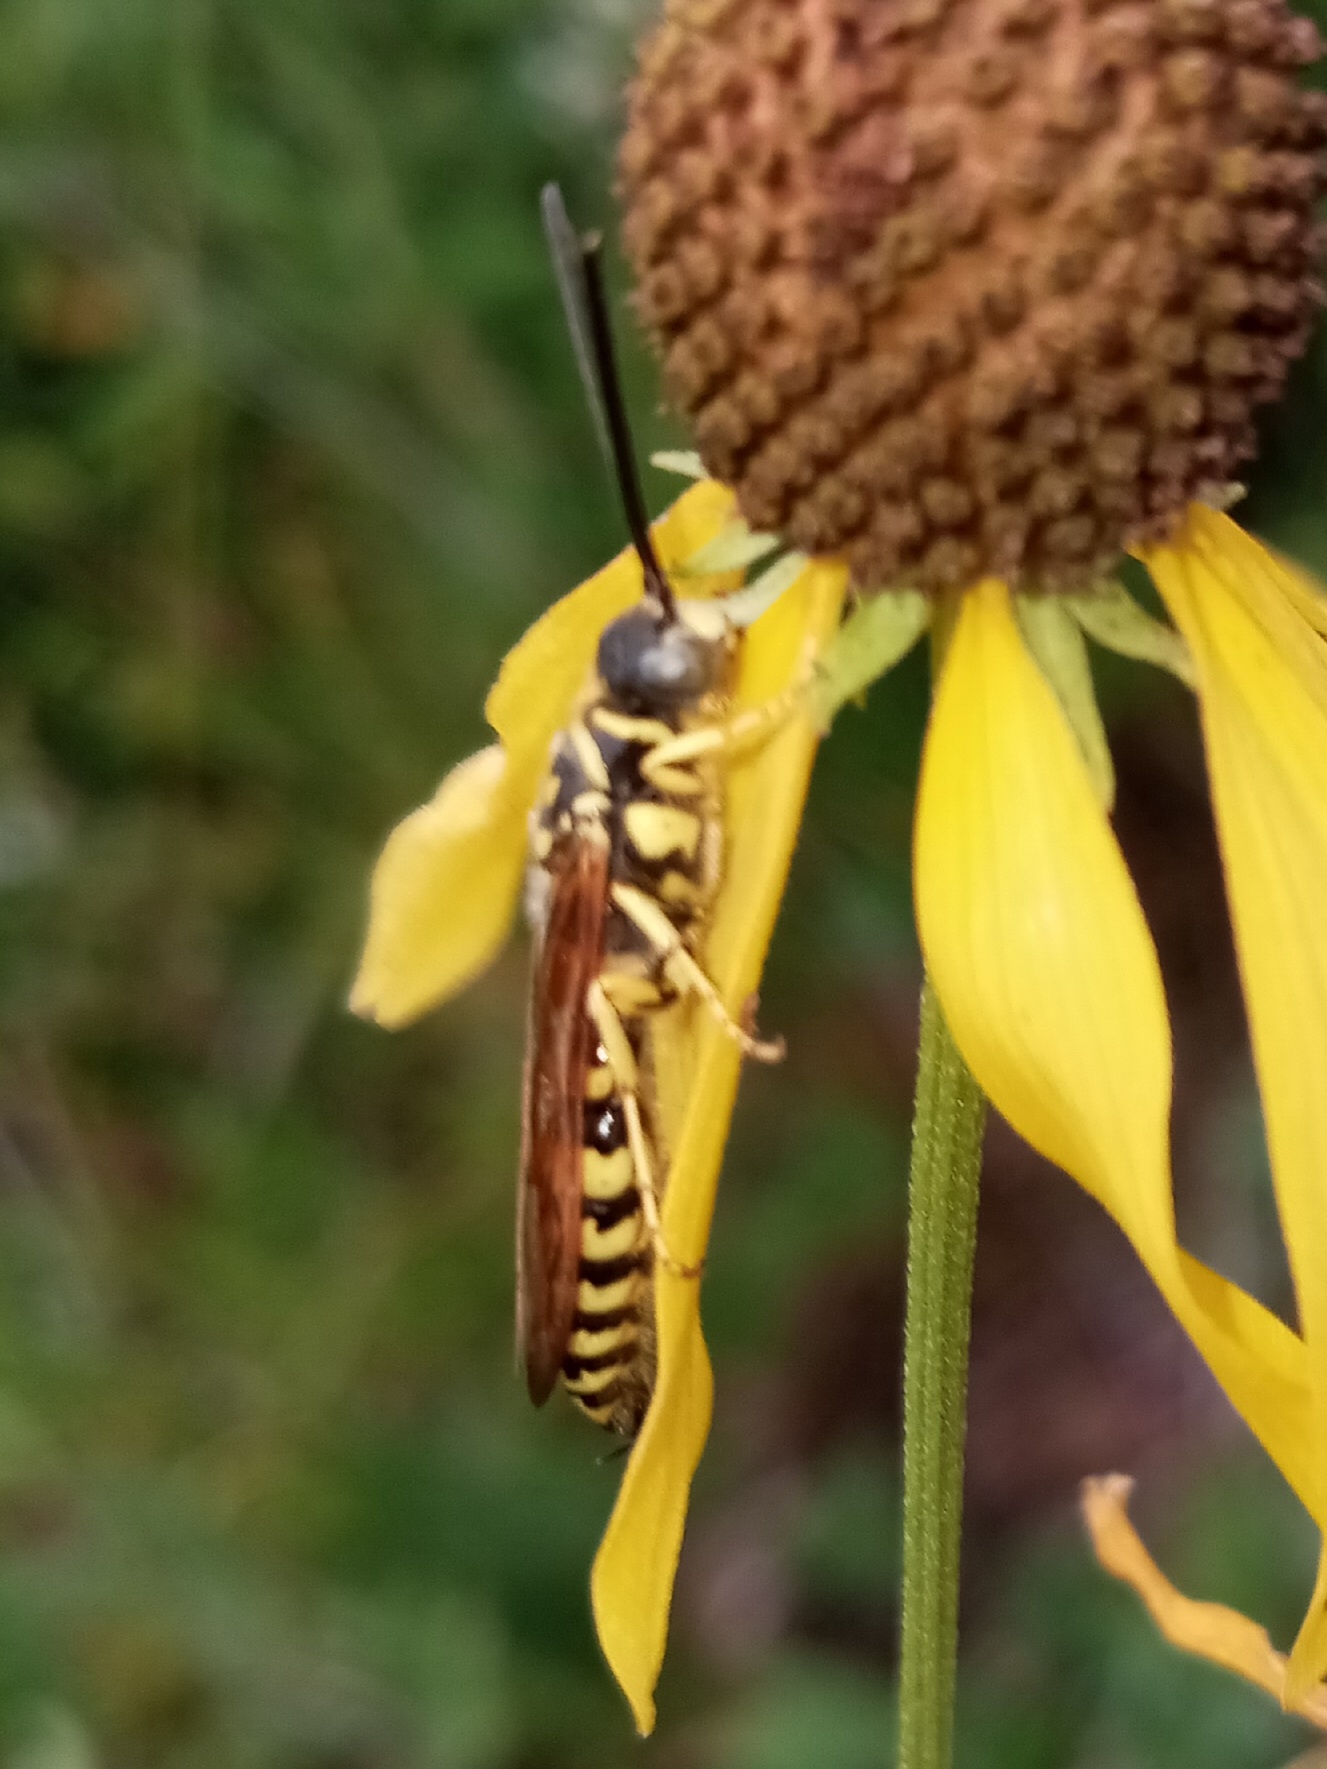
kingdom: Animalia
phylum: Arthropoda
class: Insecta
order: Hymenoptera
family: Tiphiidae
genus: Myzinum
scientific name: Myzinum quinquecinctum
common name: Five-banded thynnid wasp
